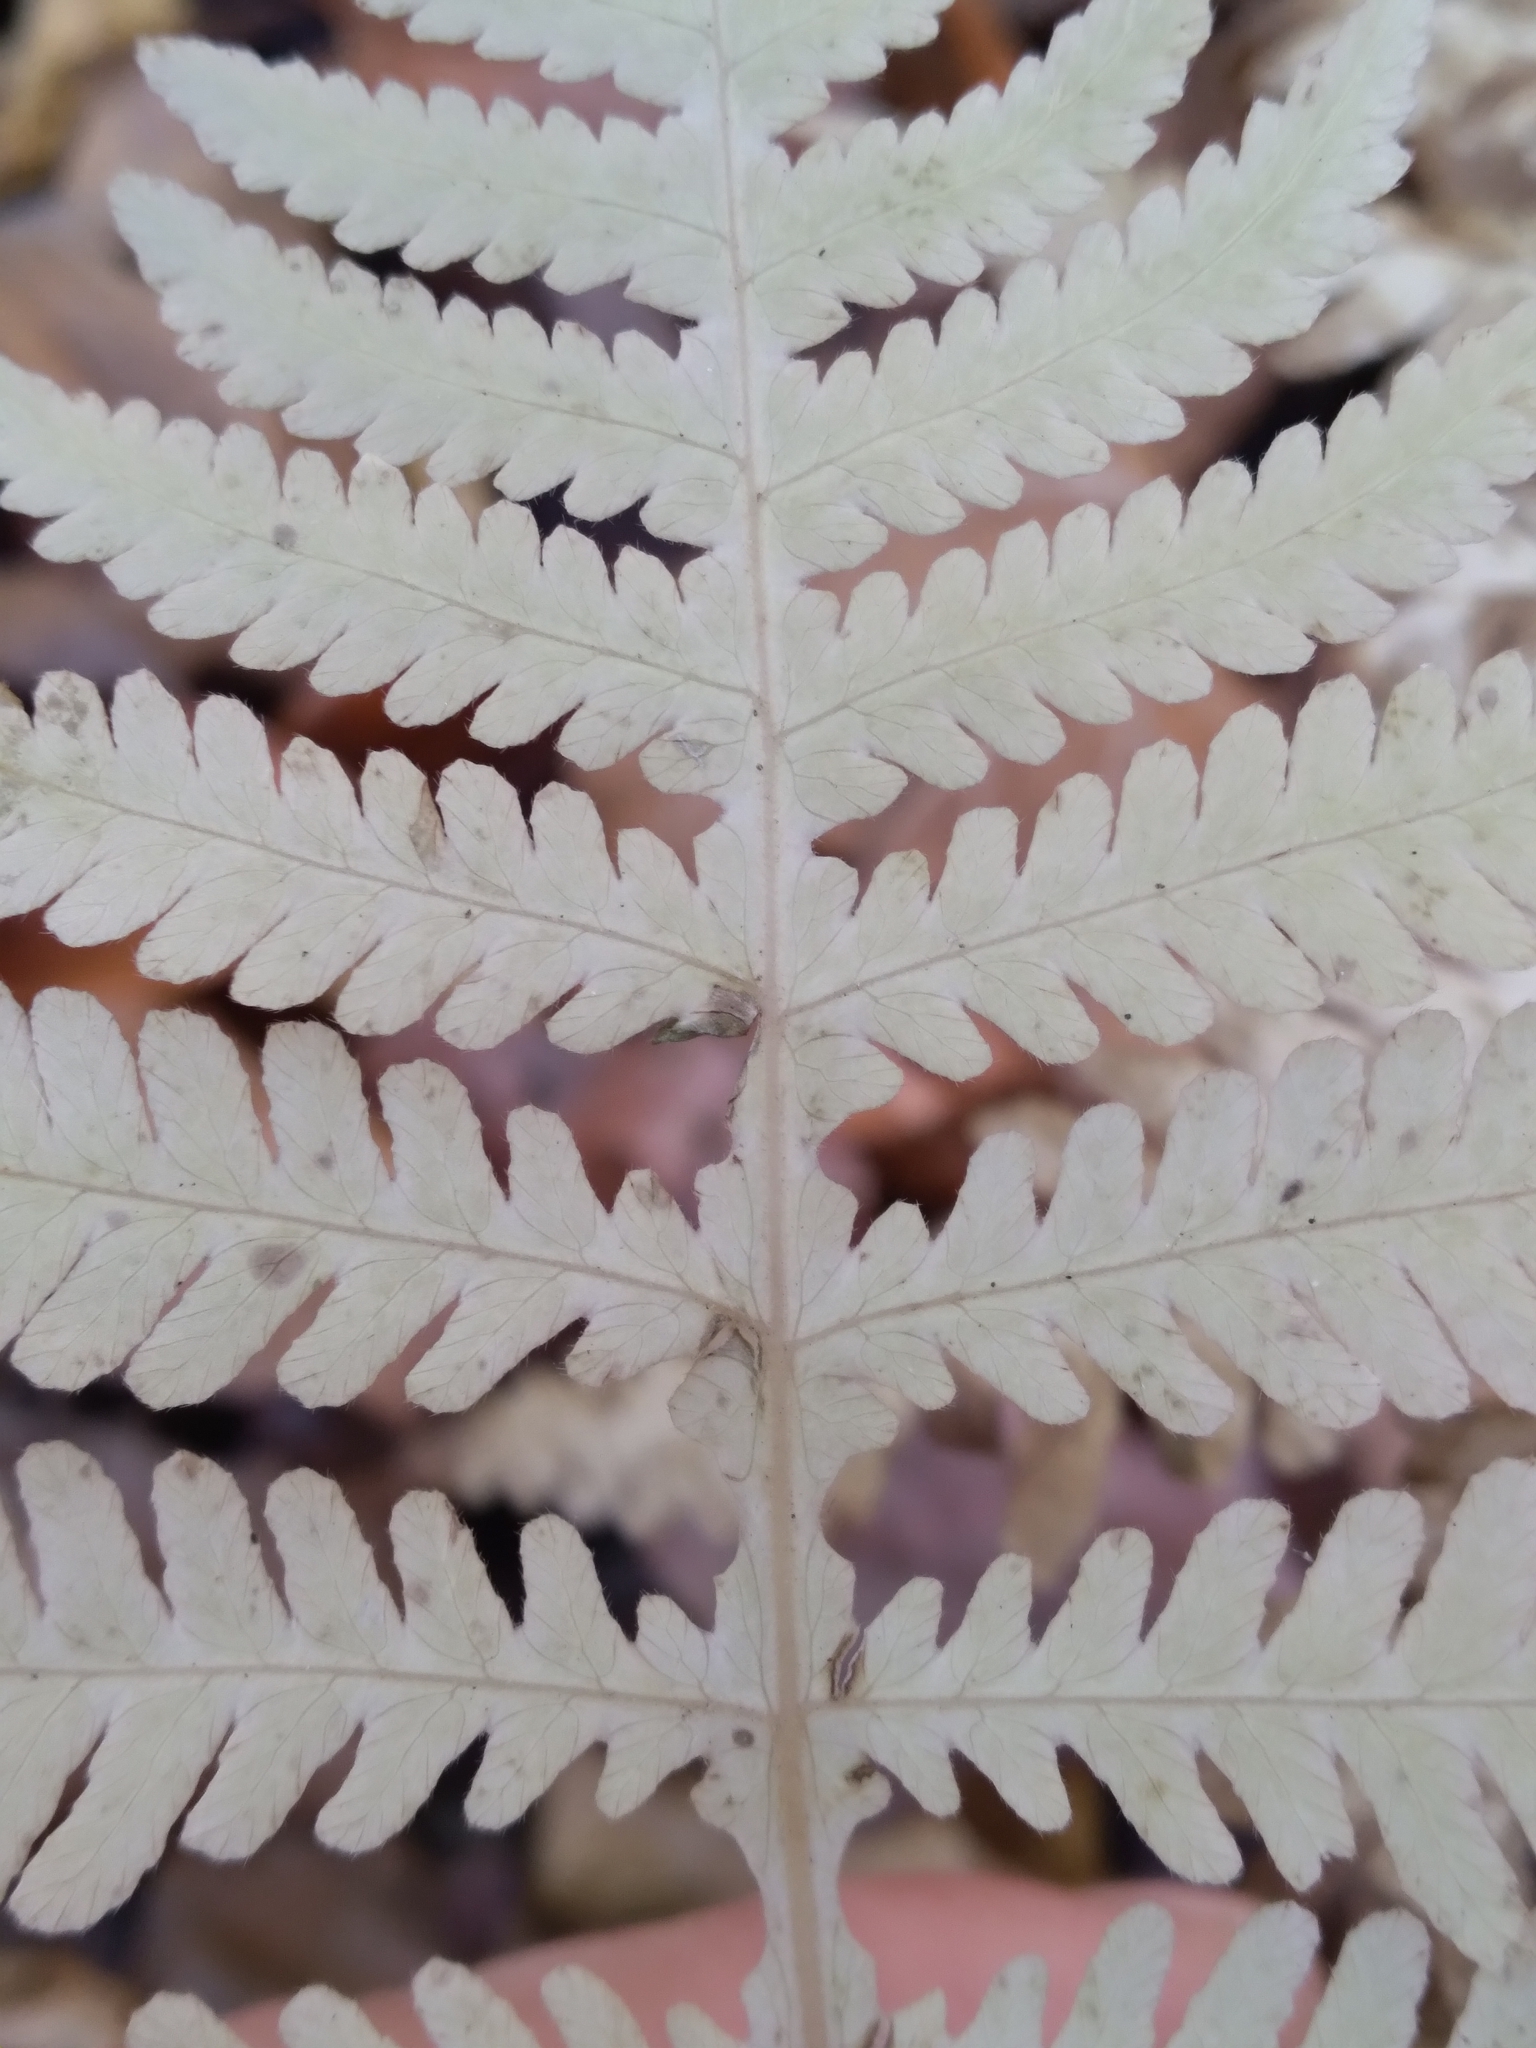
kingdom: Plantae
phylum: Tracheophyta
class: Polypodiopsida
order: Polypodiales
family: Thelypteridaceae
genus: Phegopteris
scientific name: Phegopteris hexagonoptera
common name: Broad beech fern
